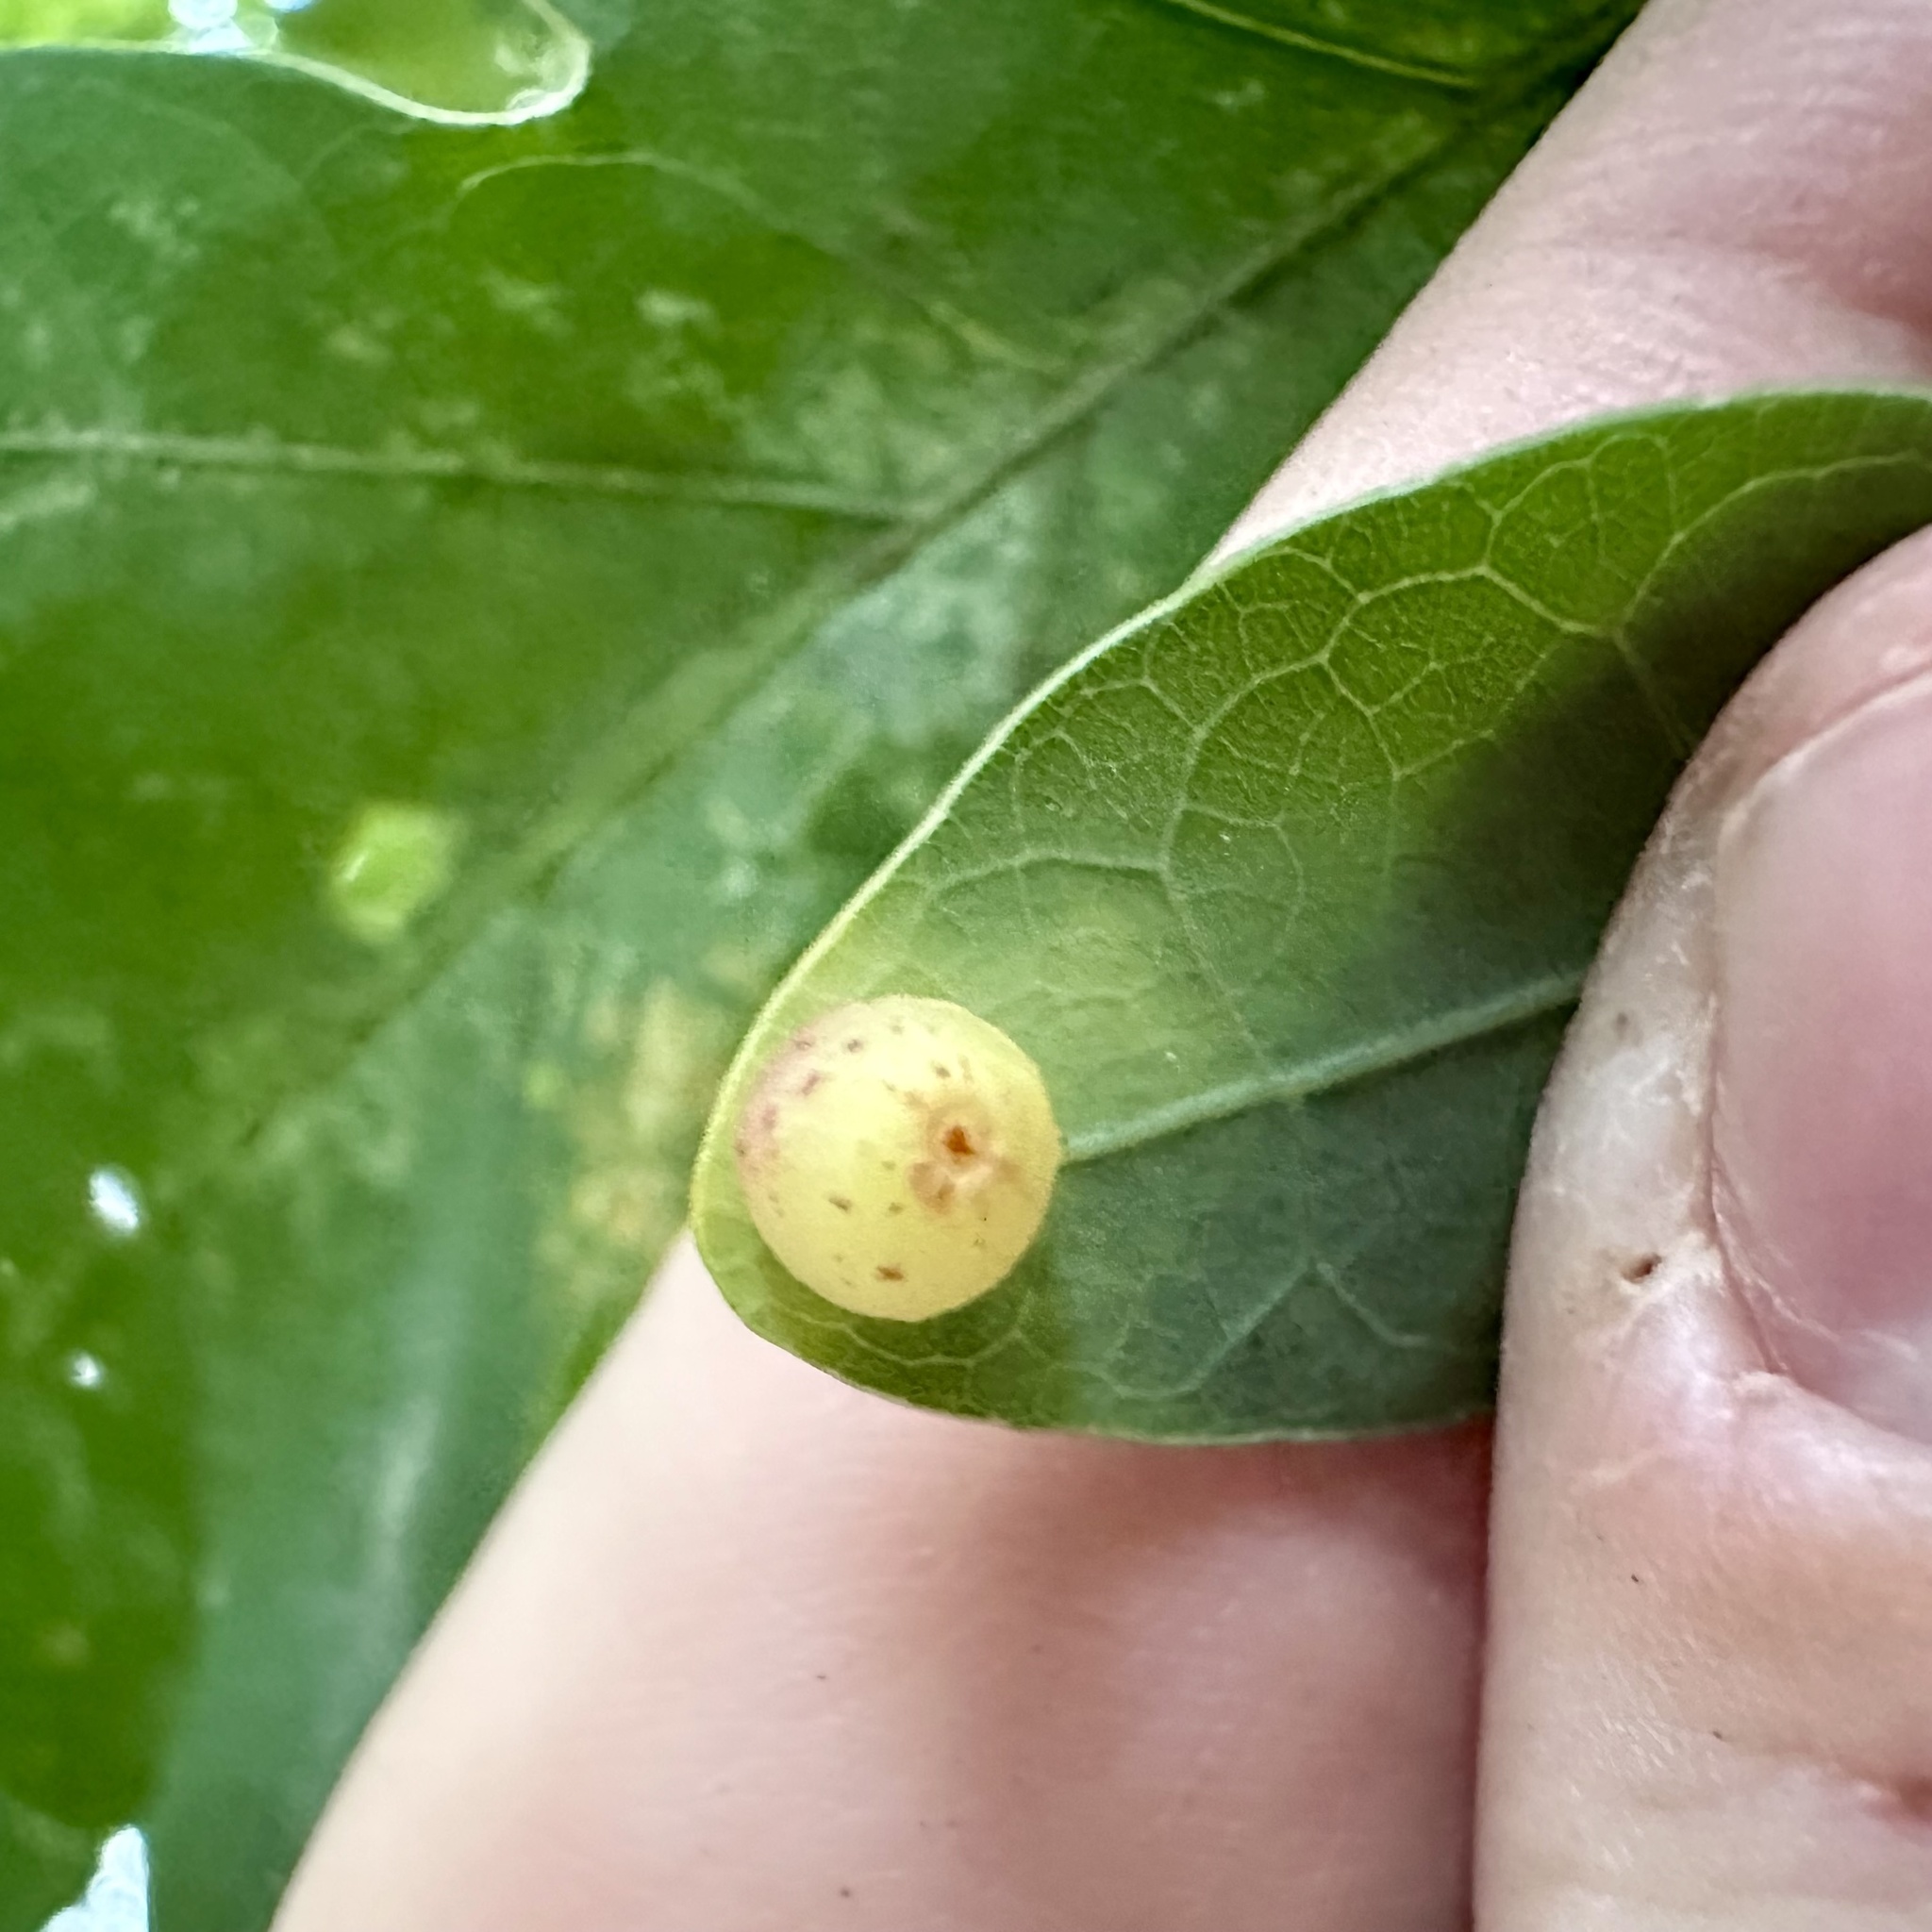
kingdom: Animalia
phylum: Arthropoda
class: Insecta
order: Hymenoptera
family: Cynipidae
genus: Andricus
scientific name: Andricus
